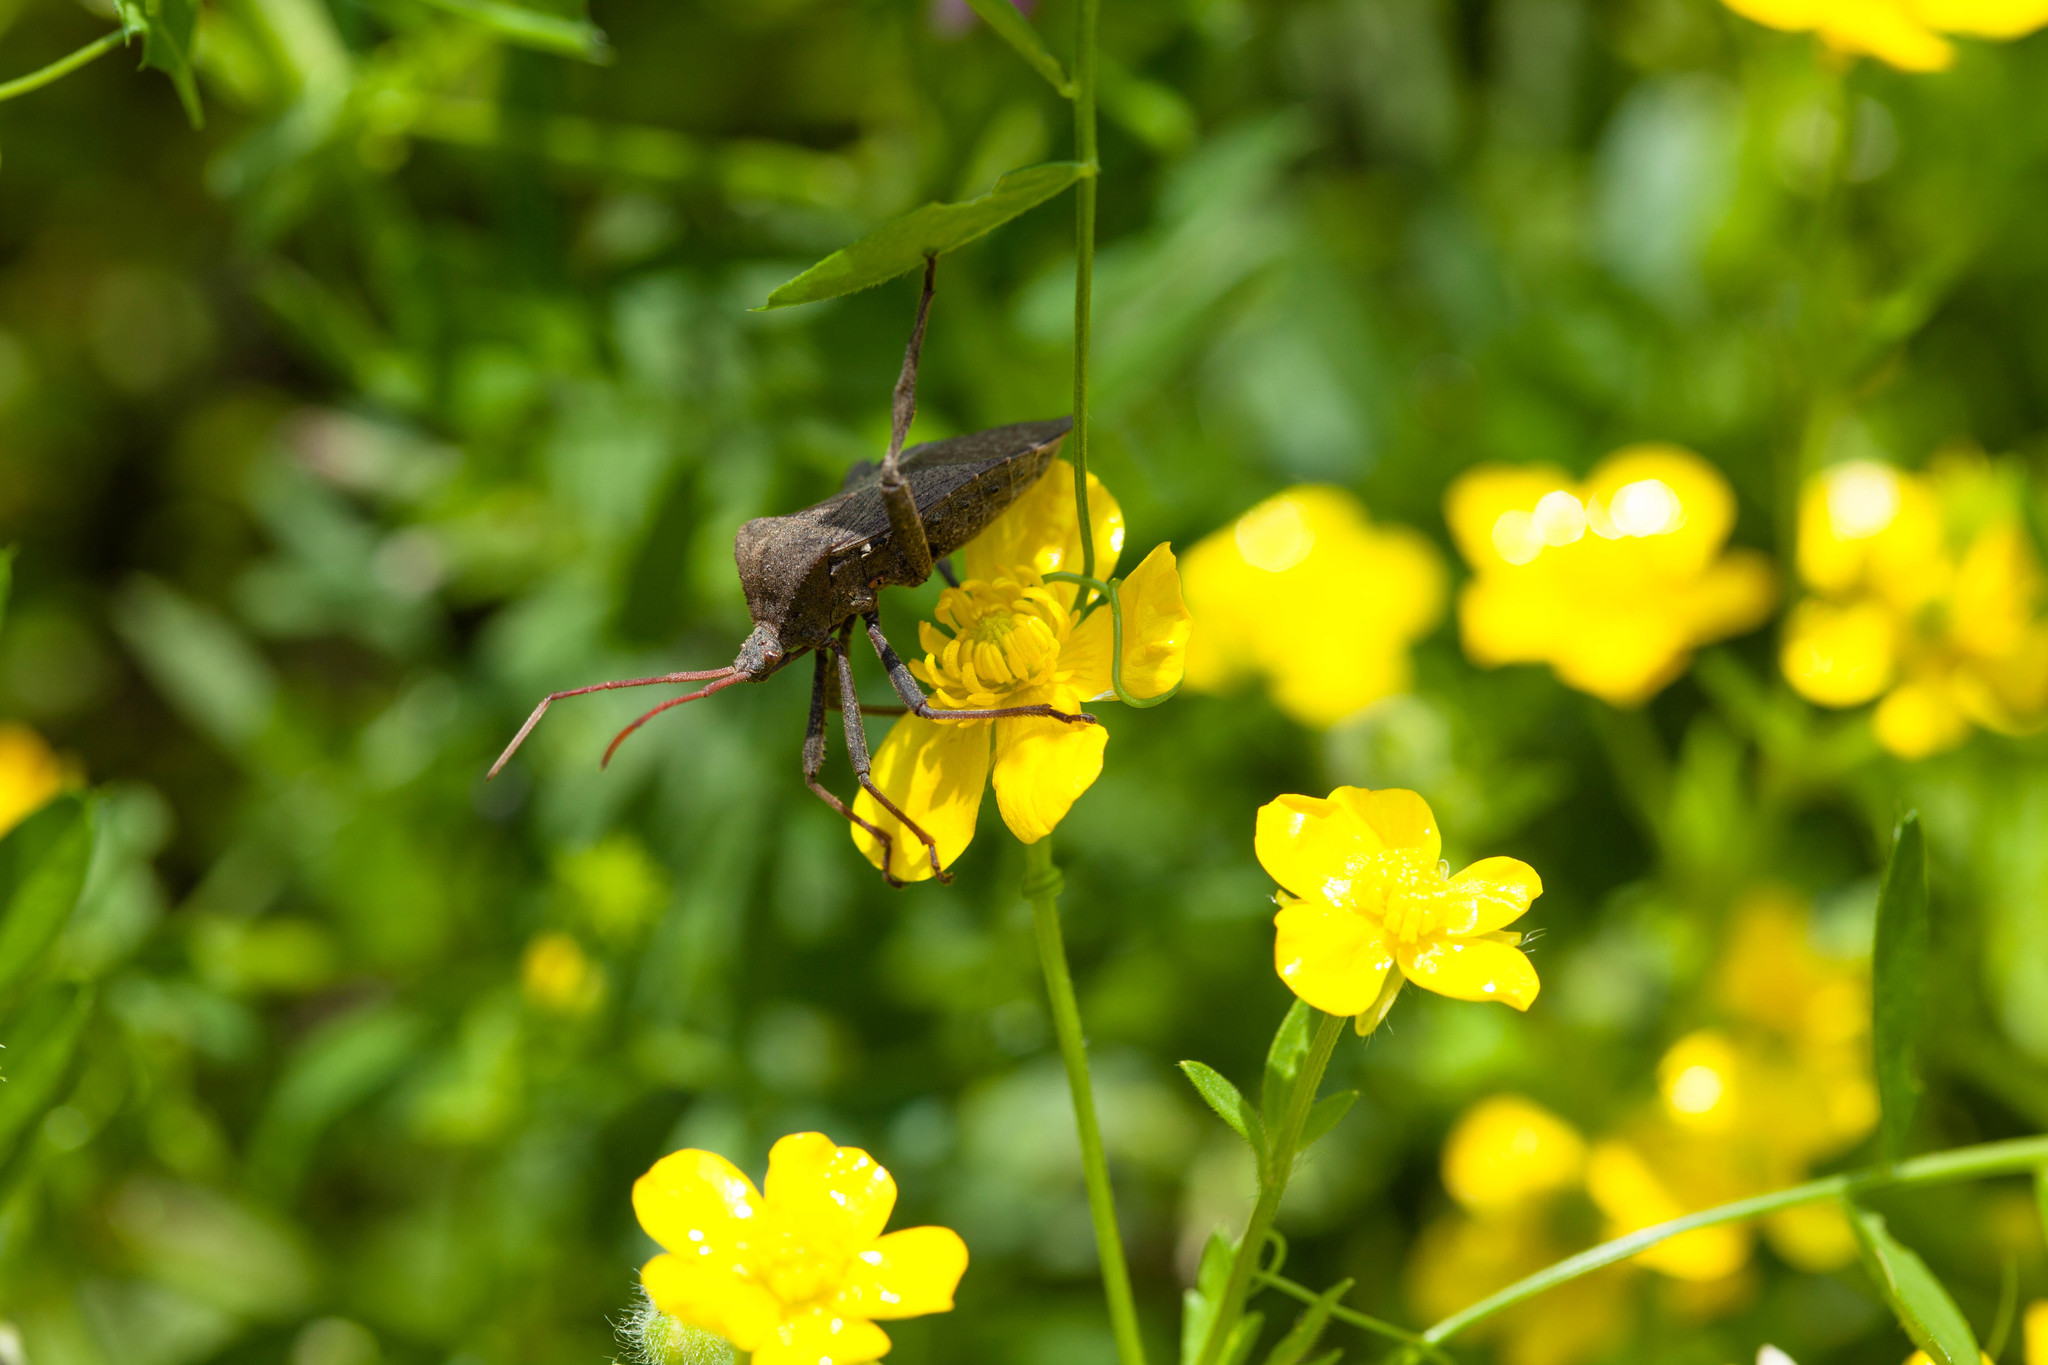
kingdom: Animalia
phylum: Arthropoda
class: Insecta
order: Hemiptera
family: Coreidae
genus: Acanthocephala
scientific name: Acanthocephala femorata
